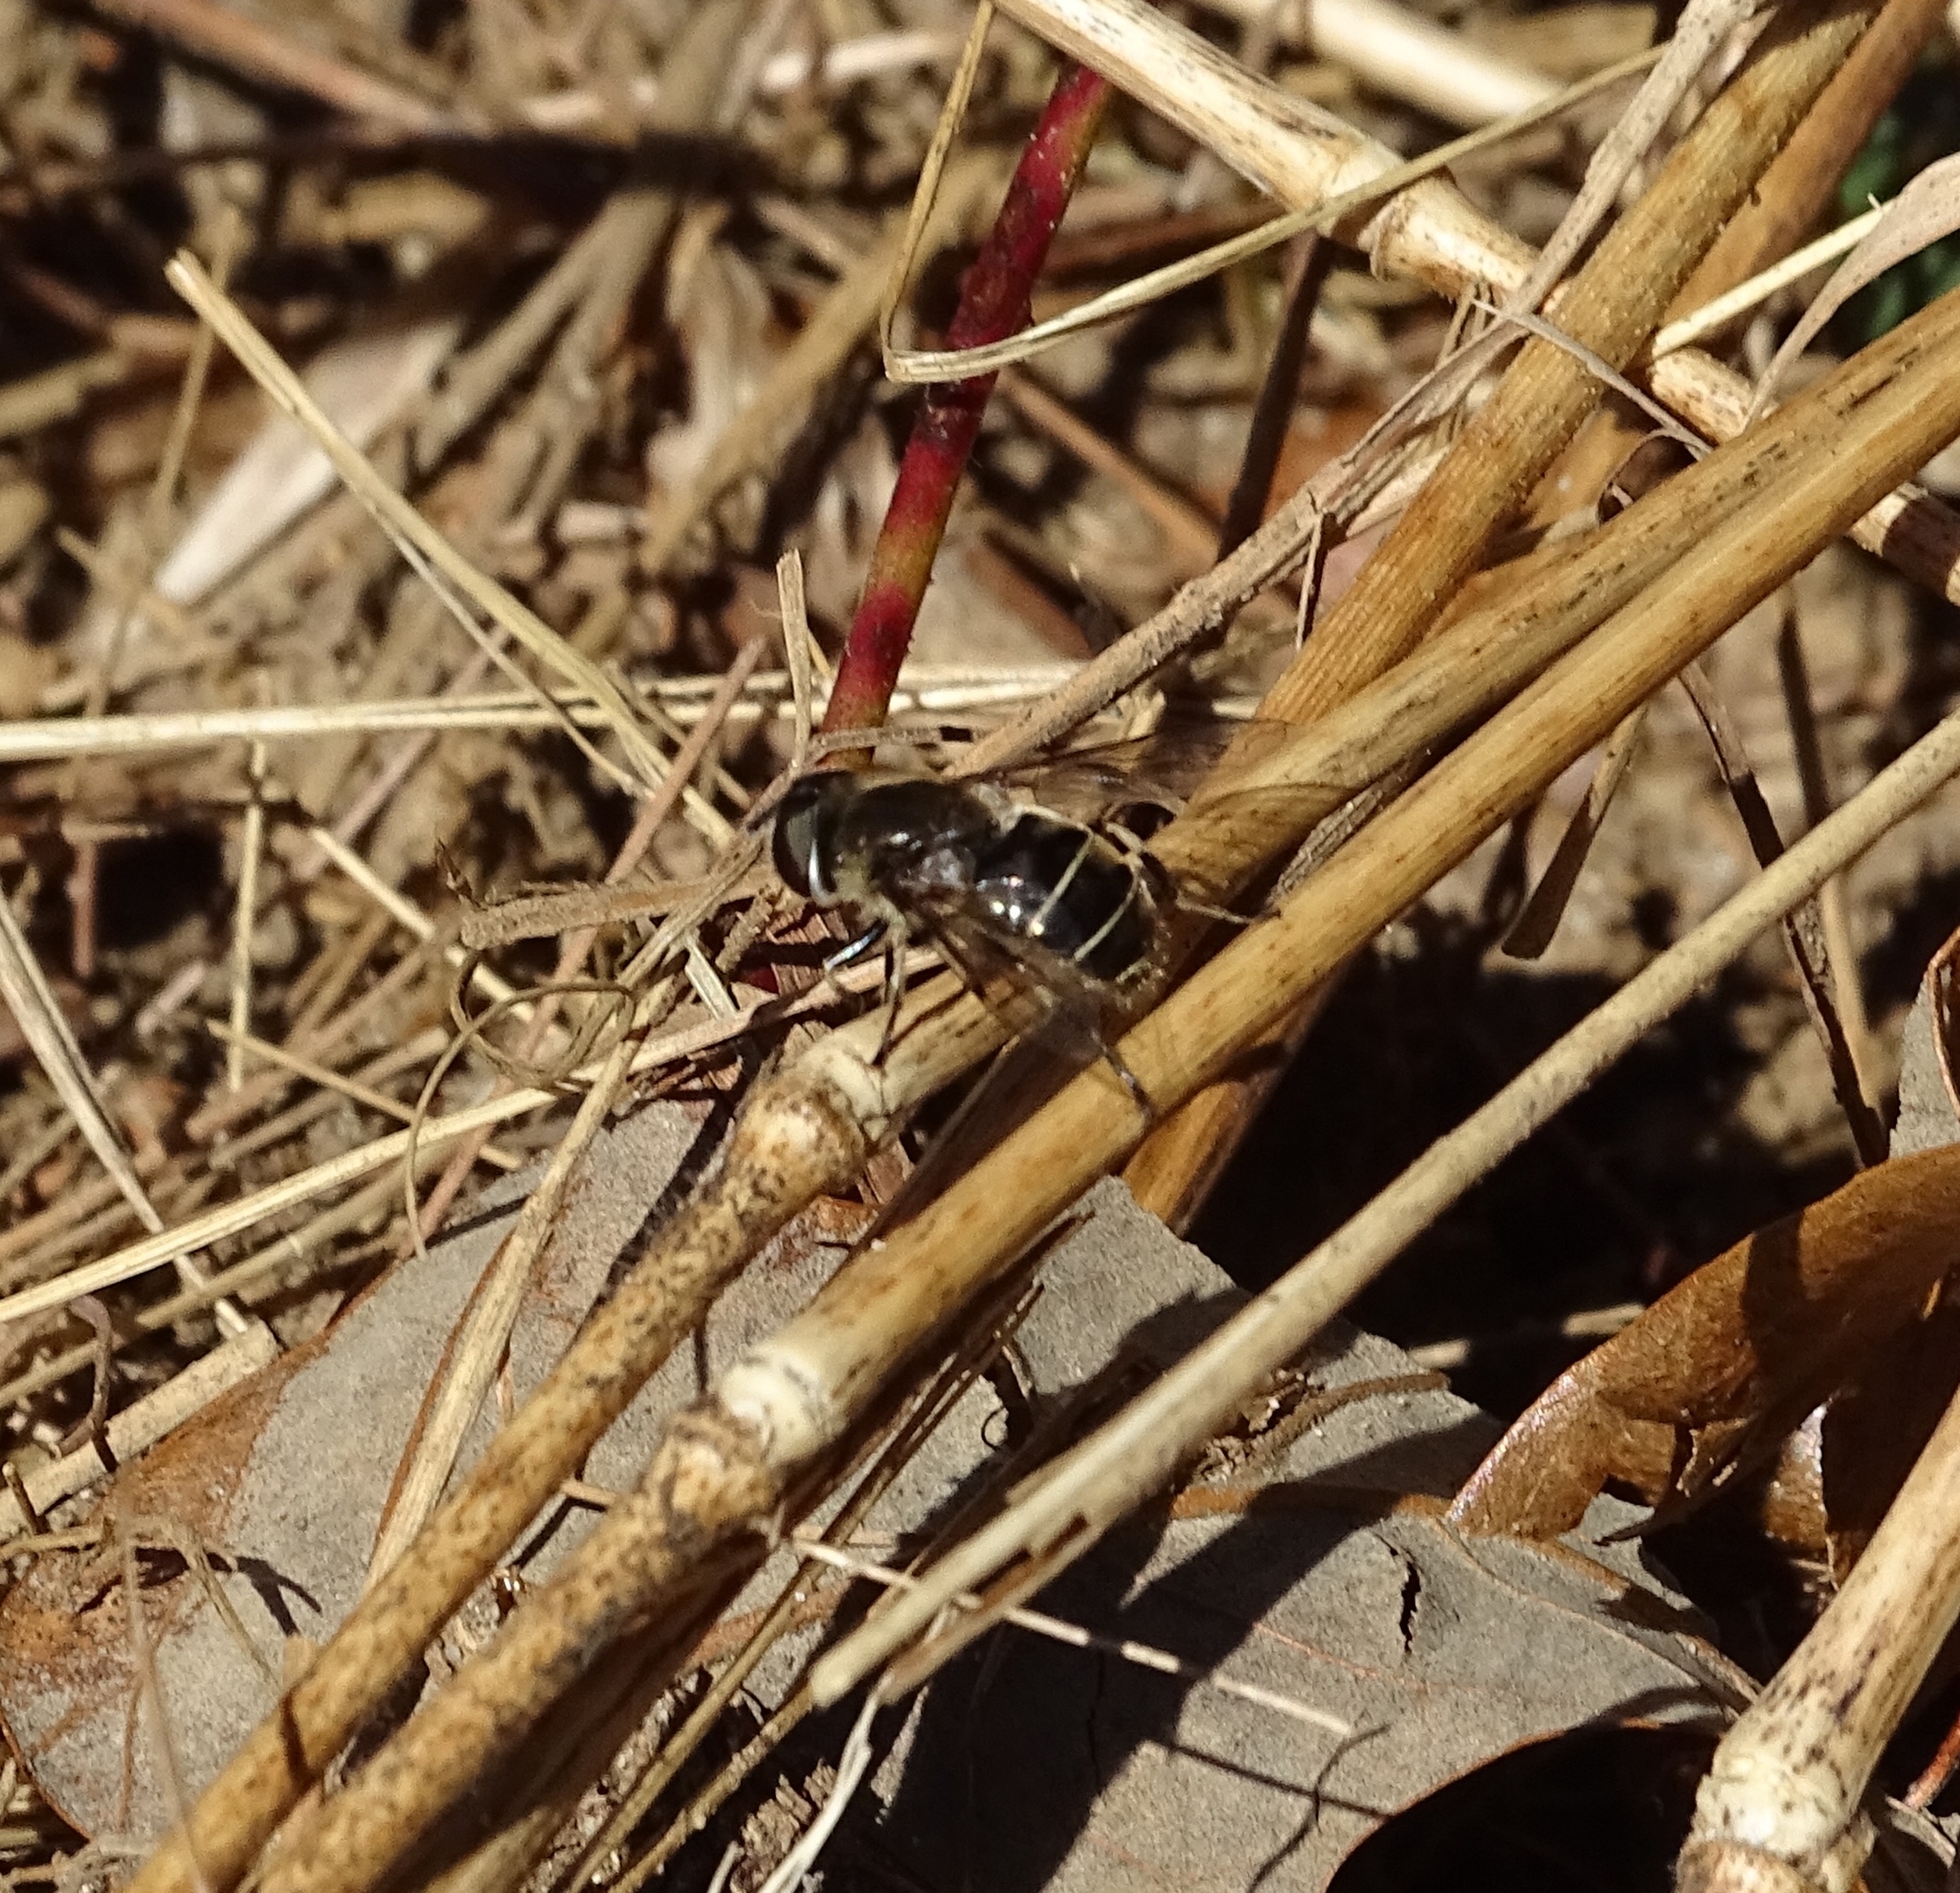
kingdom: Animalia
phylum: Arthropoda
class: Insecta
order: Diptera
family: Syrphidae
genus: Eristalis
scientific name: Eristalis dimidiata
